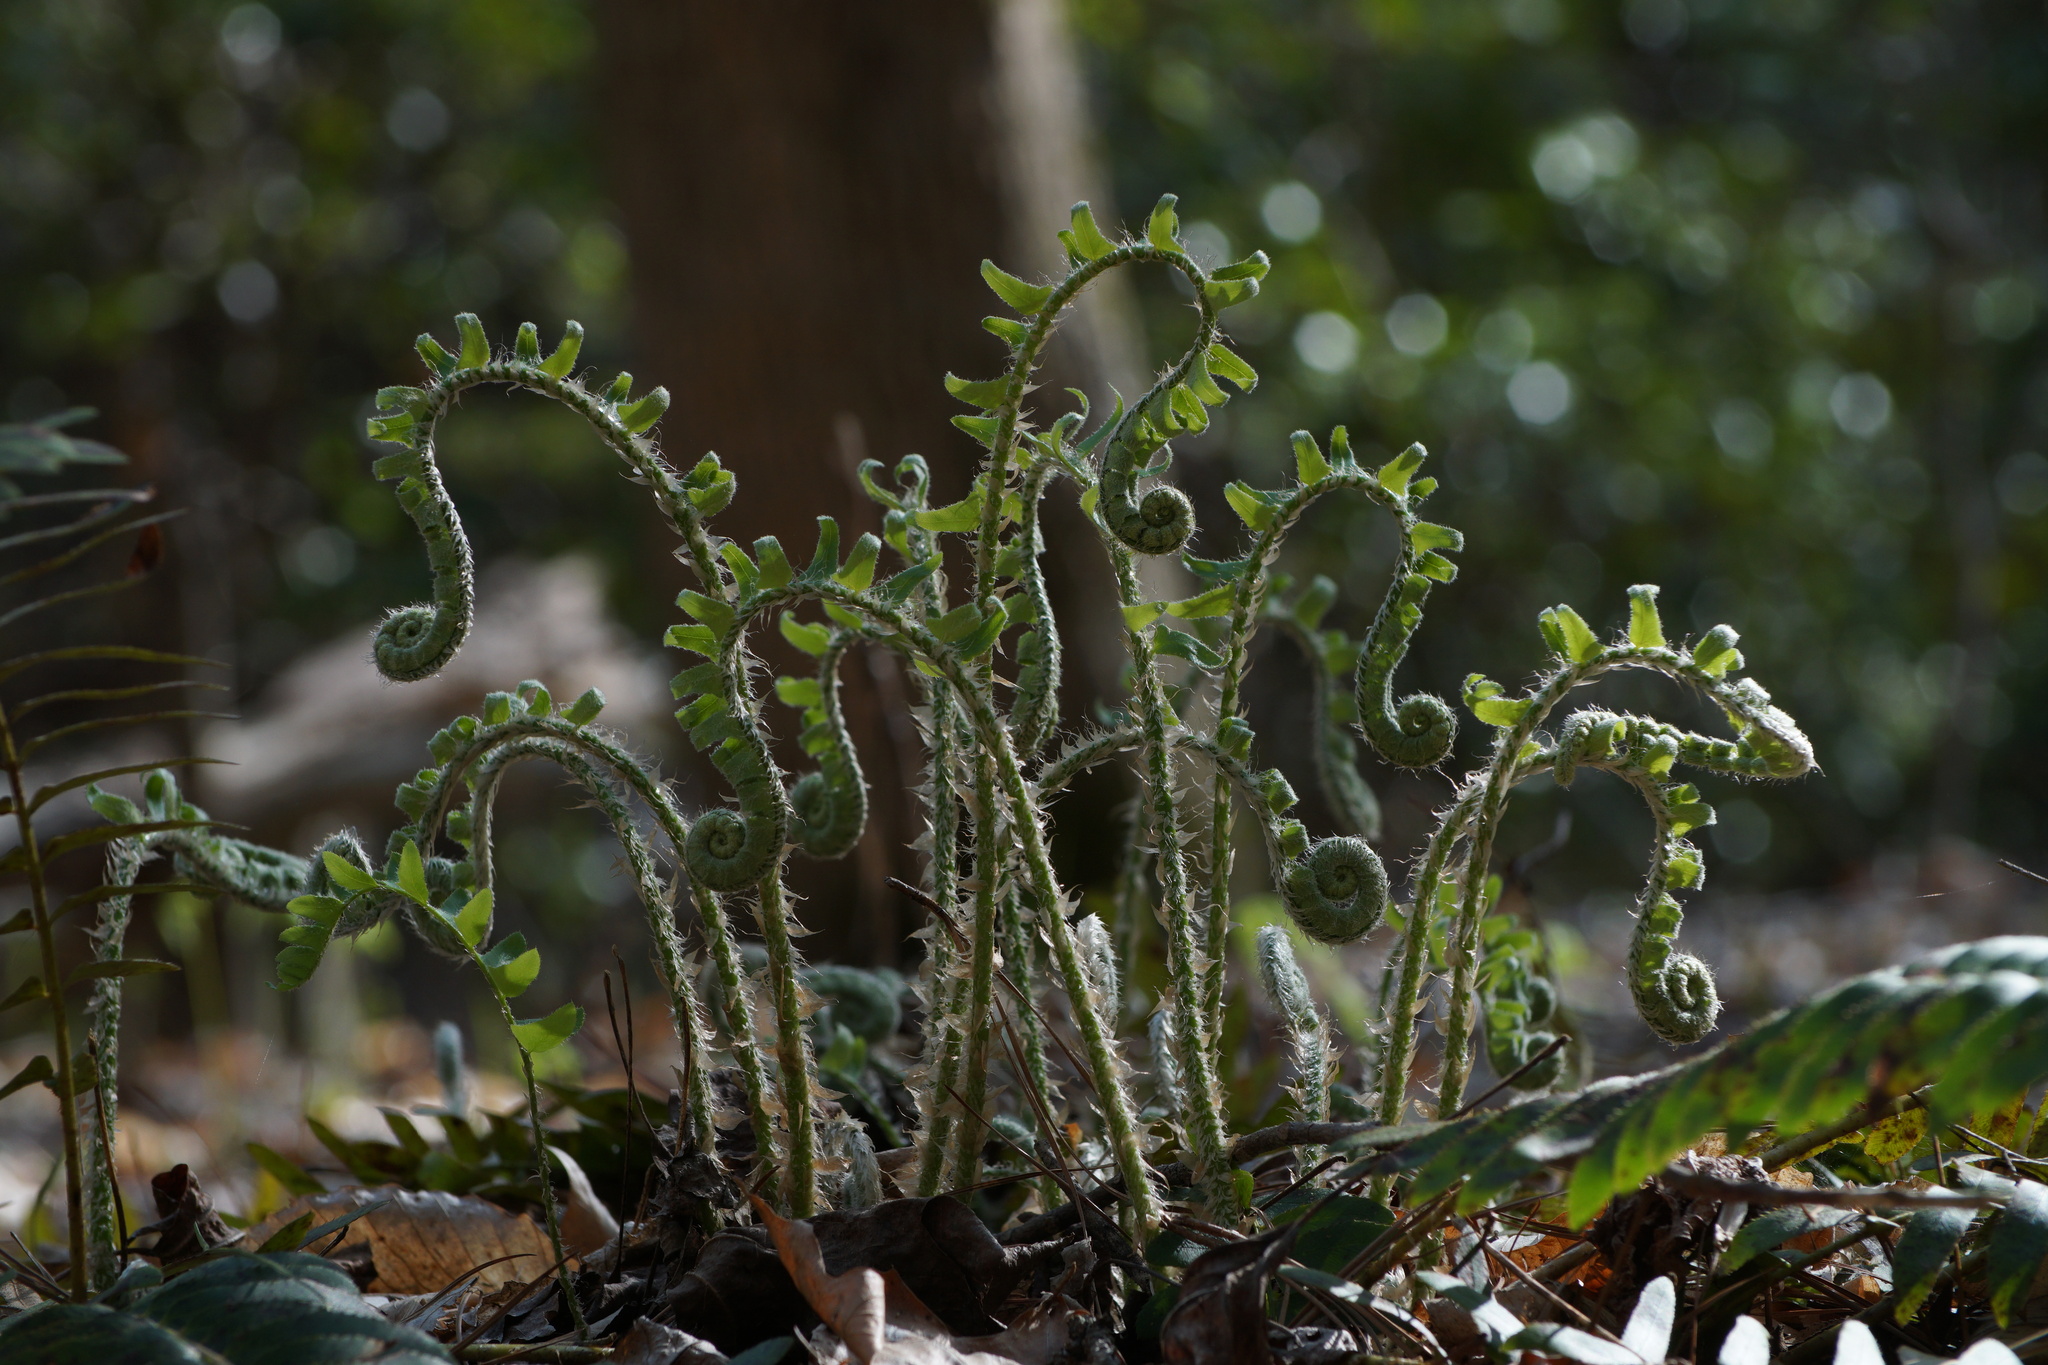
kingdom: Plantae
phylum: Tracheophyta
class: Polypodiopsida
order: Polypodiales
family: Dryopteridaceae
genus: Polystichum
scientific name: Polystichum acrostichoides
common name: Christmas fern
